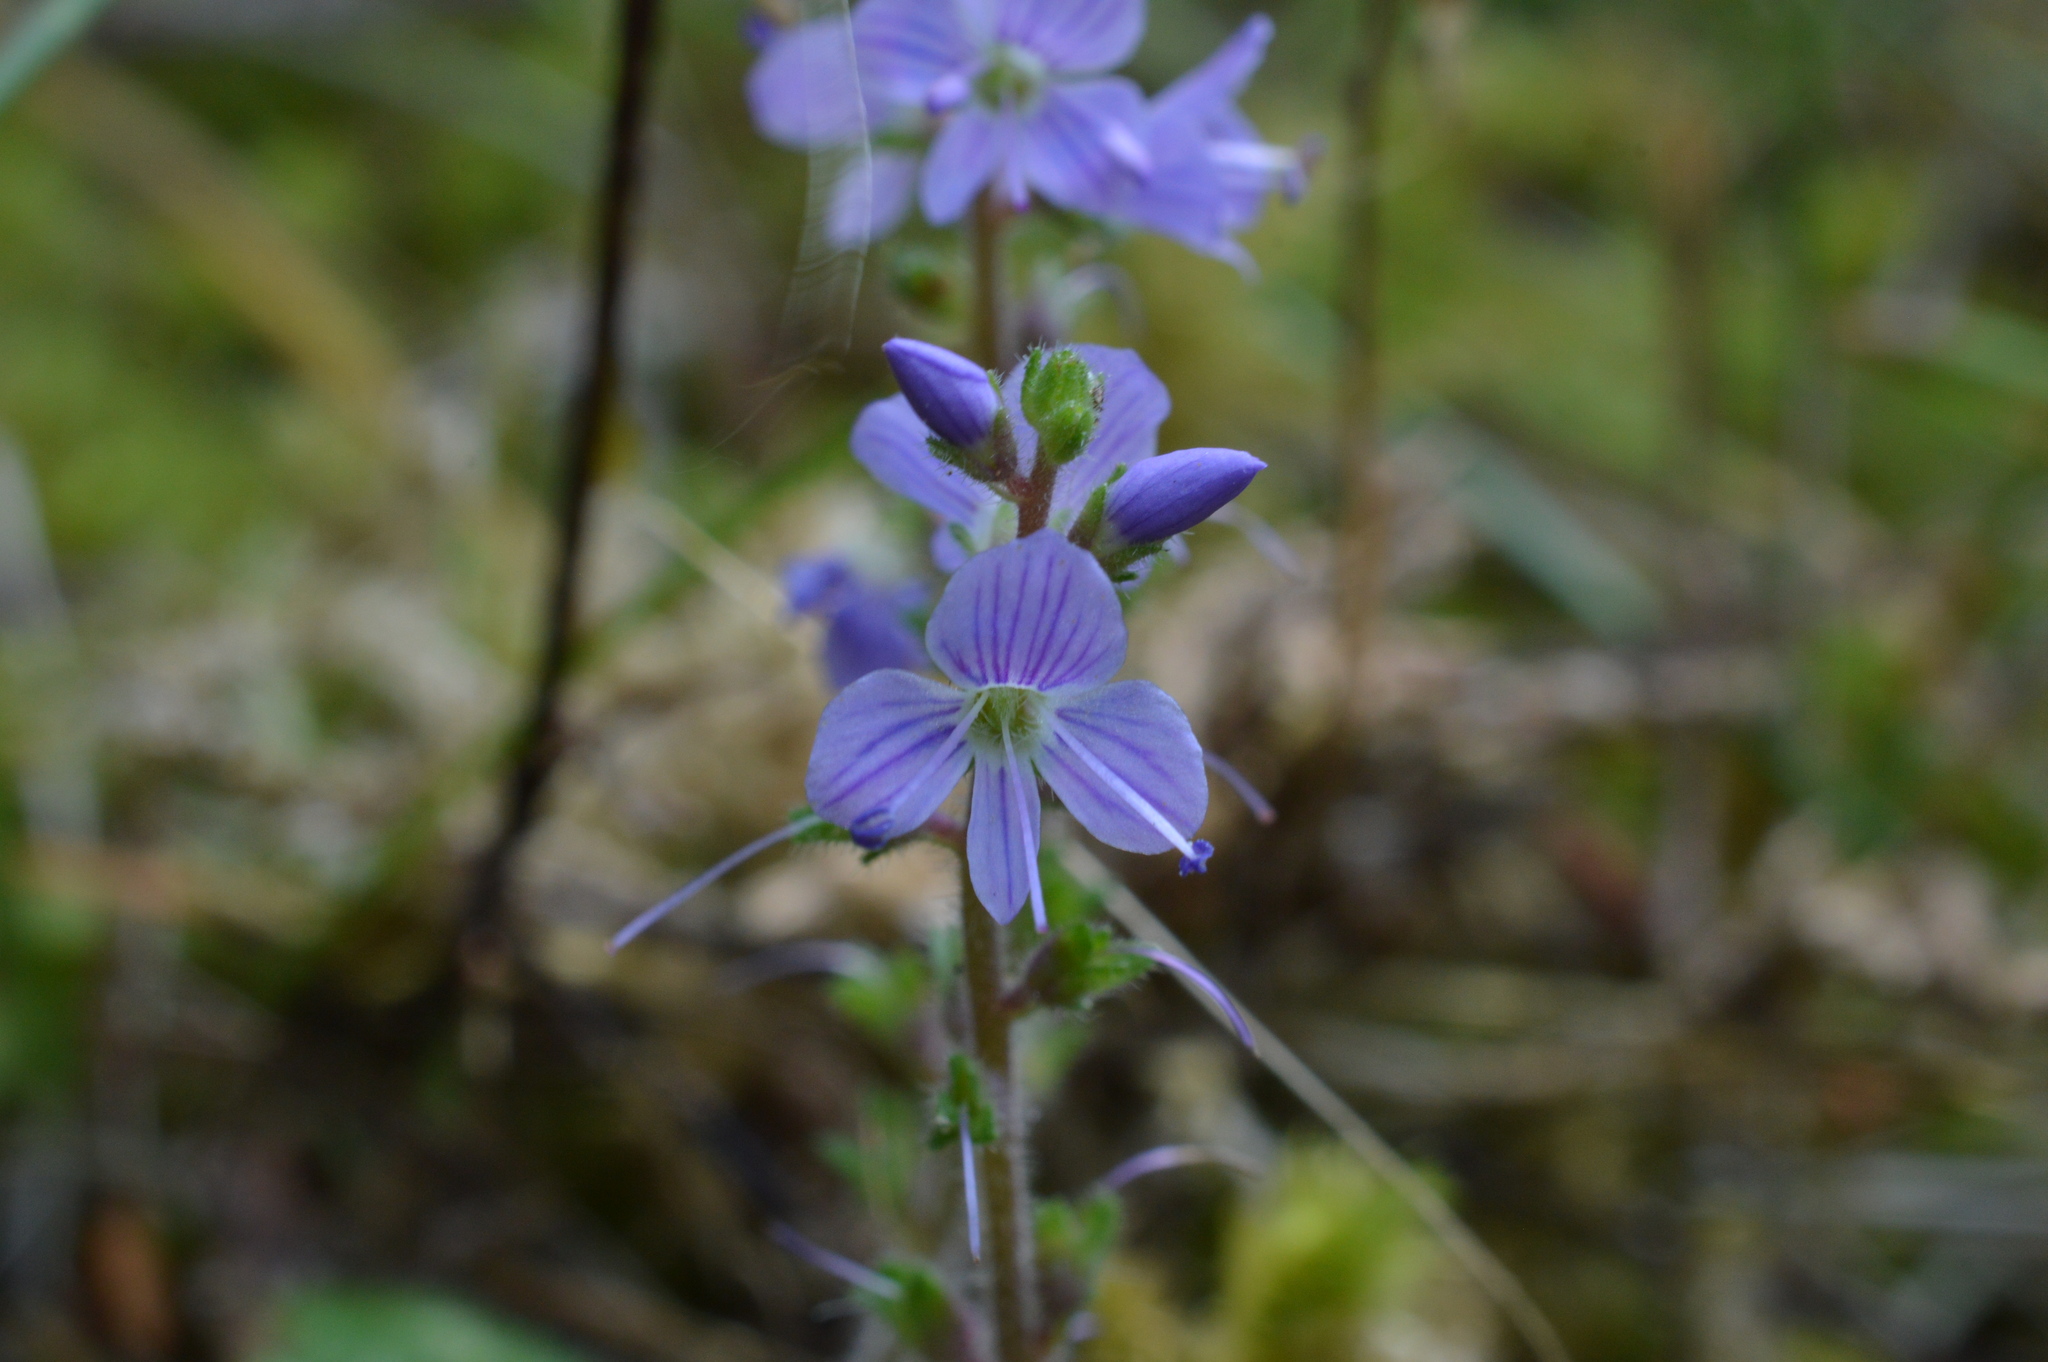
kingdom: Plantae
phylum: Tracheophyta
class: Magnoliopsida
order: Lamiales
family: Plantaginaceae
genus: Veronica
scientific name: Veronica officinalis
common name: Common speedwell
